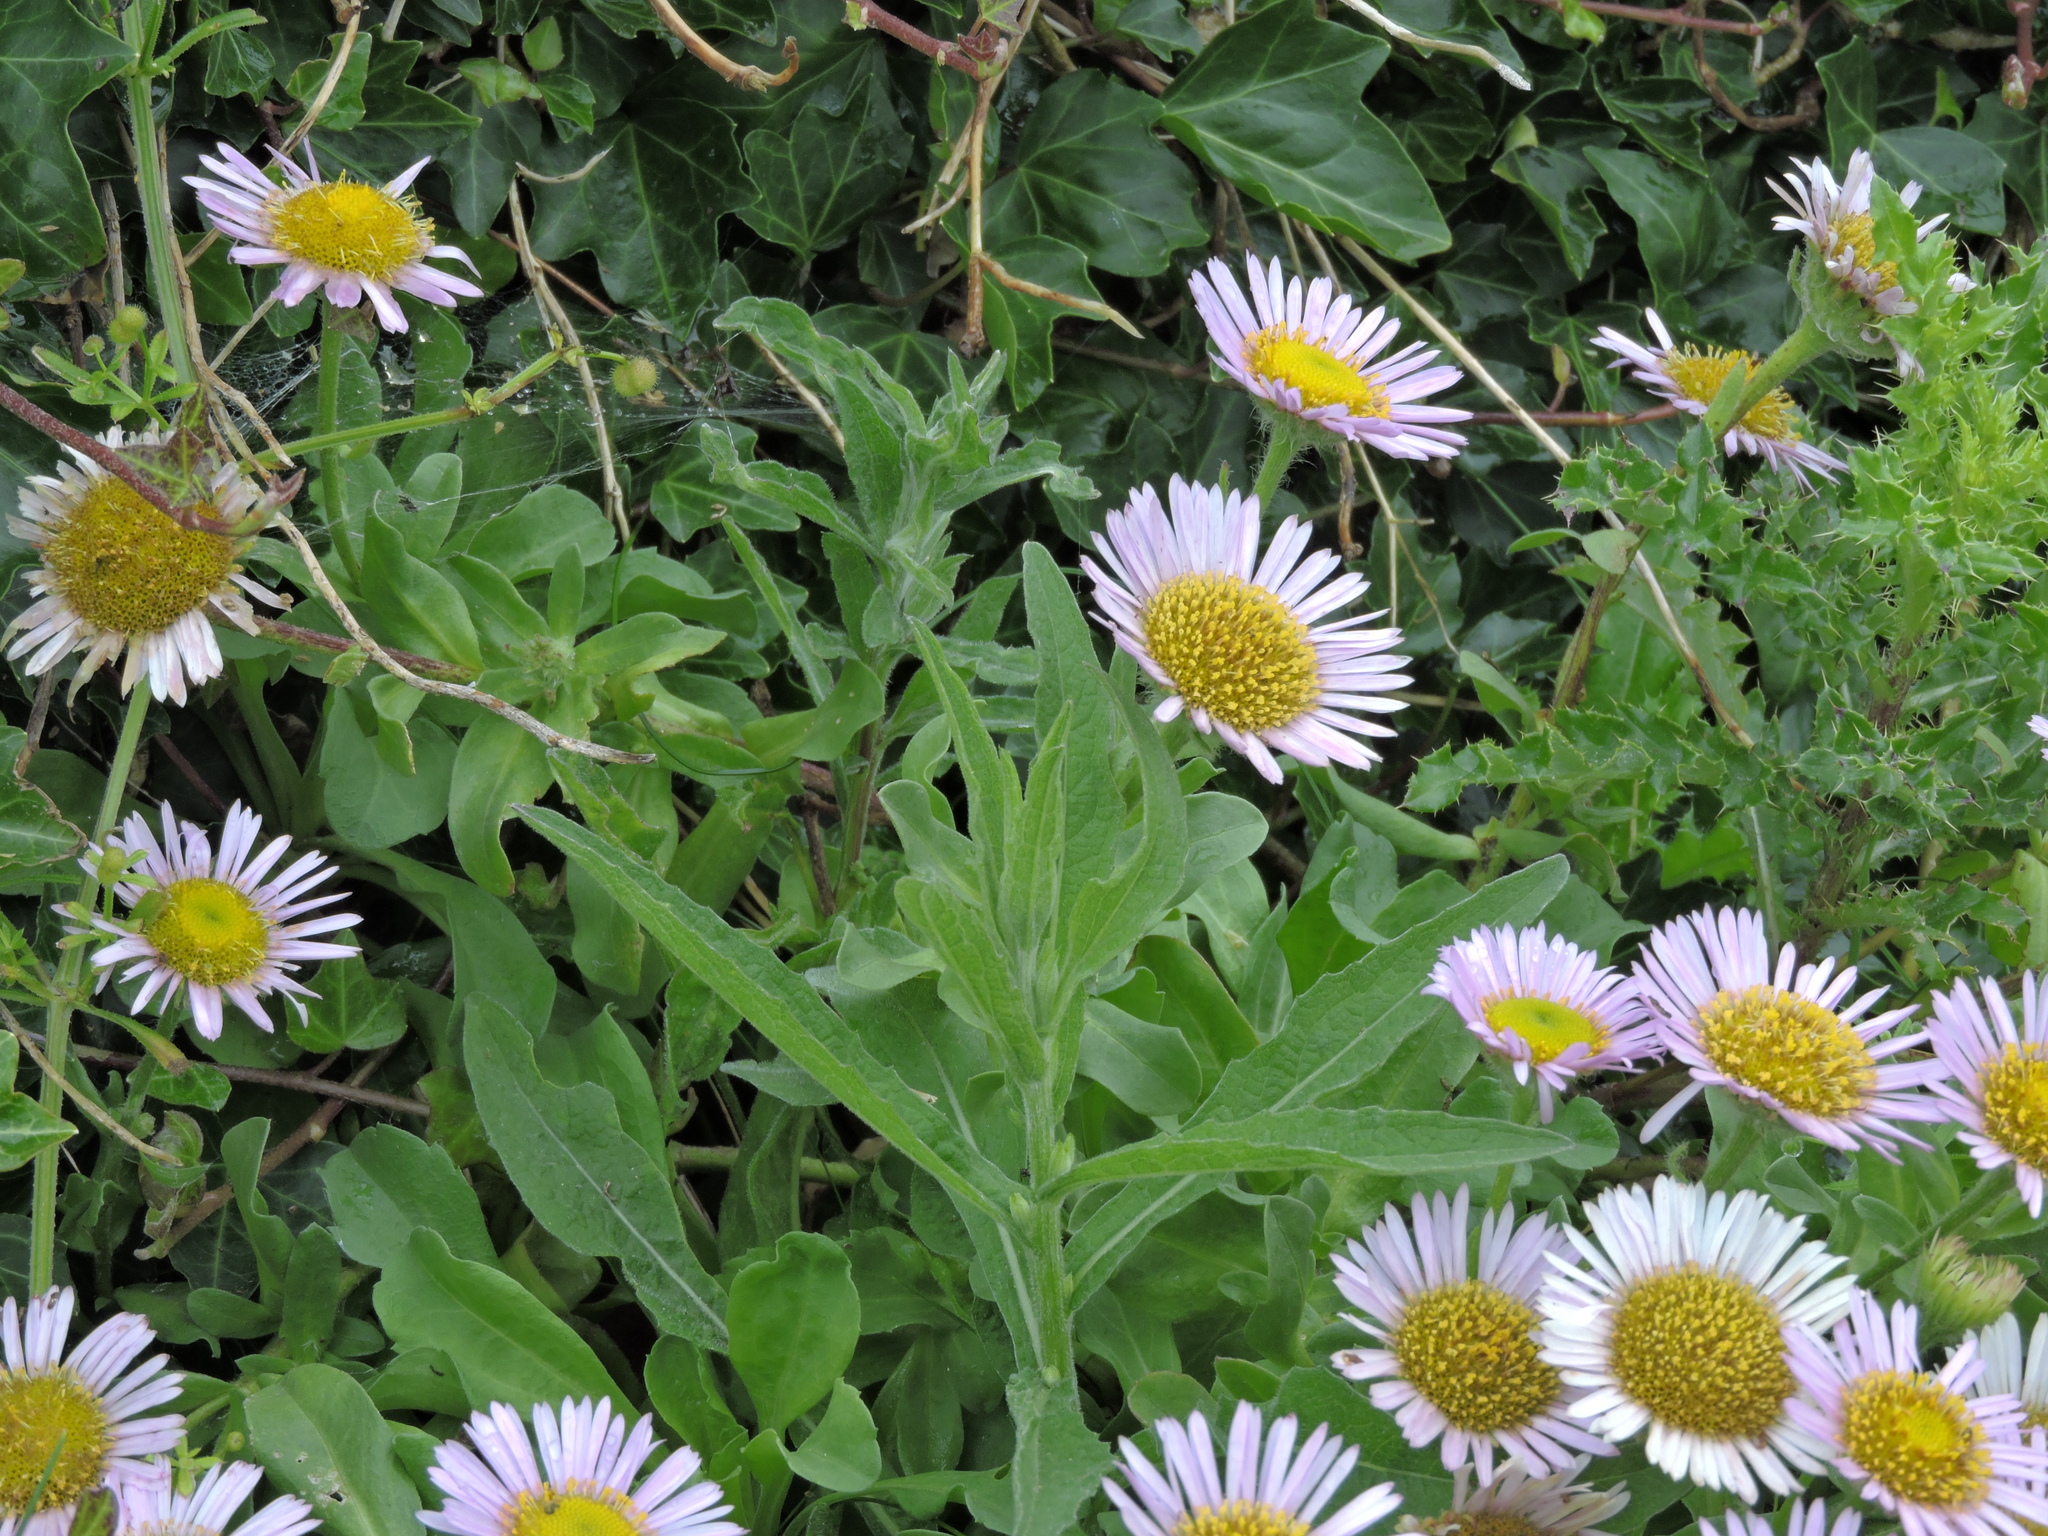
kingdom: Plantae
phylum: Tracheophyta
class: Magnoliopsida
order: Asterales
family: Asteraceae
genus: Erigeron
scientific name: Erigeron glaucus
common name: Seaside daisy
